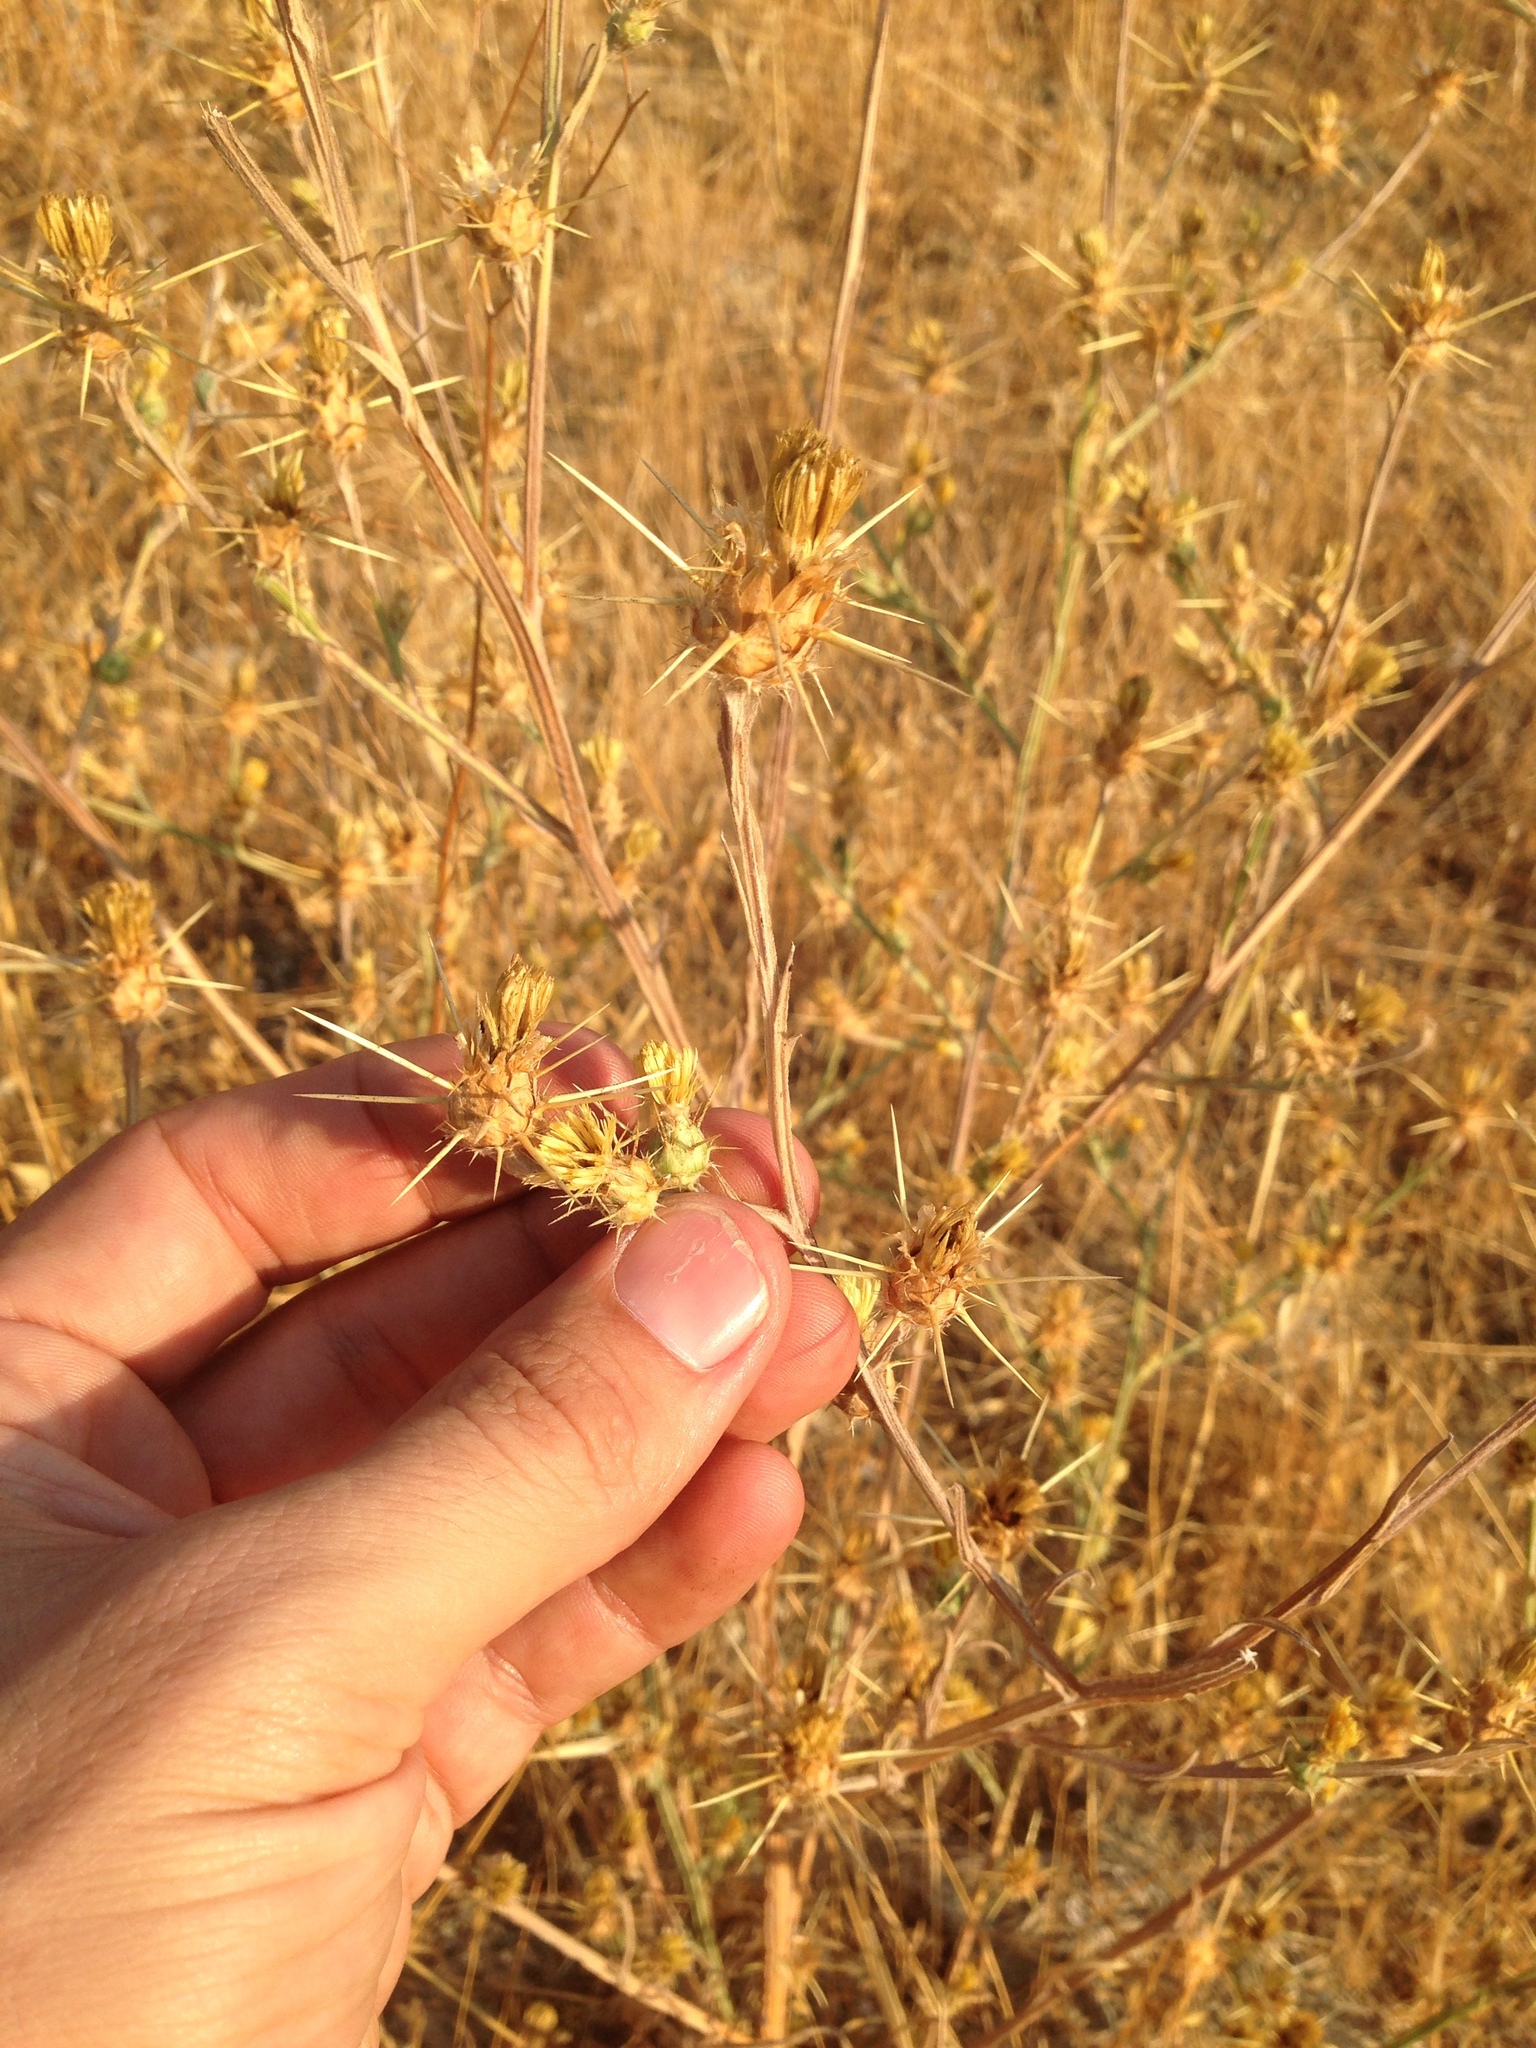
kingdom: Plantae
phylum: Tracheophyta
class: Magnoliopsida
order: Asterales
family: Asteraceae
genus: Centaurea
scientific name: Centaurea solstitialis
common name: Yellow star-thistle
